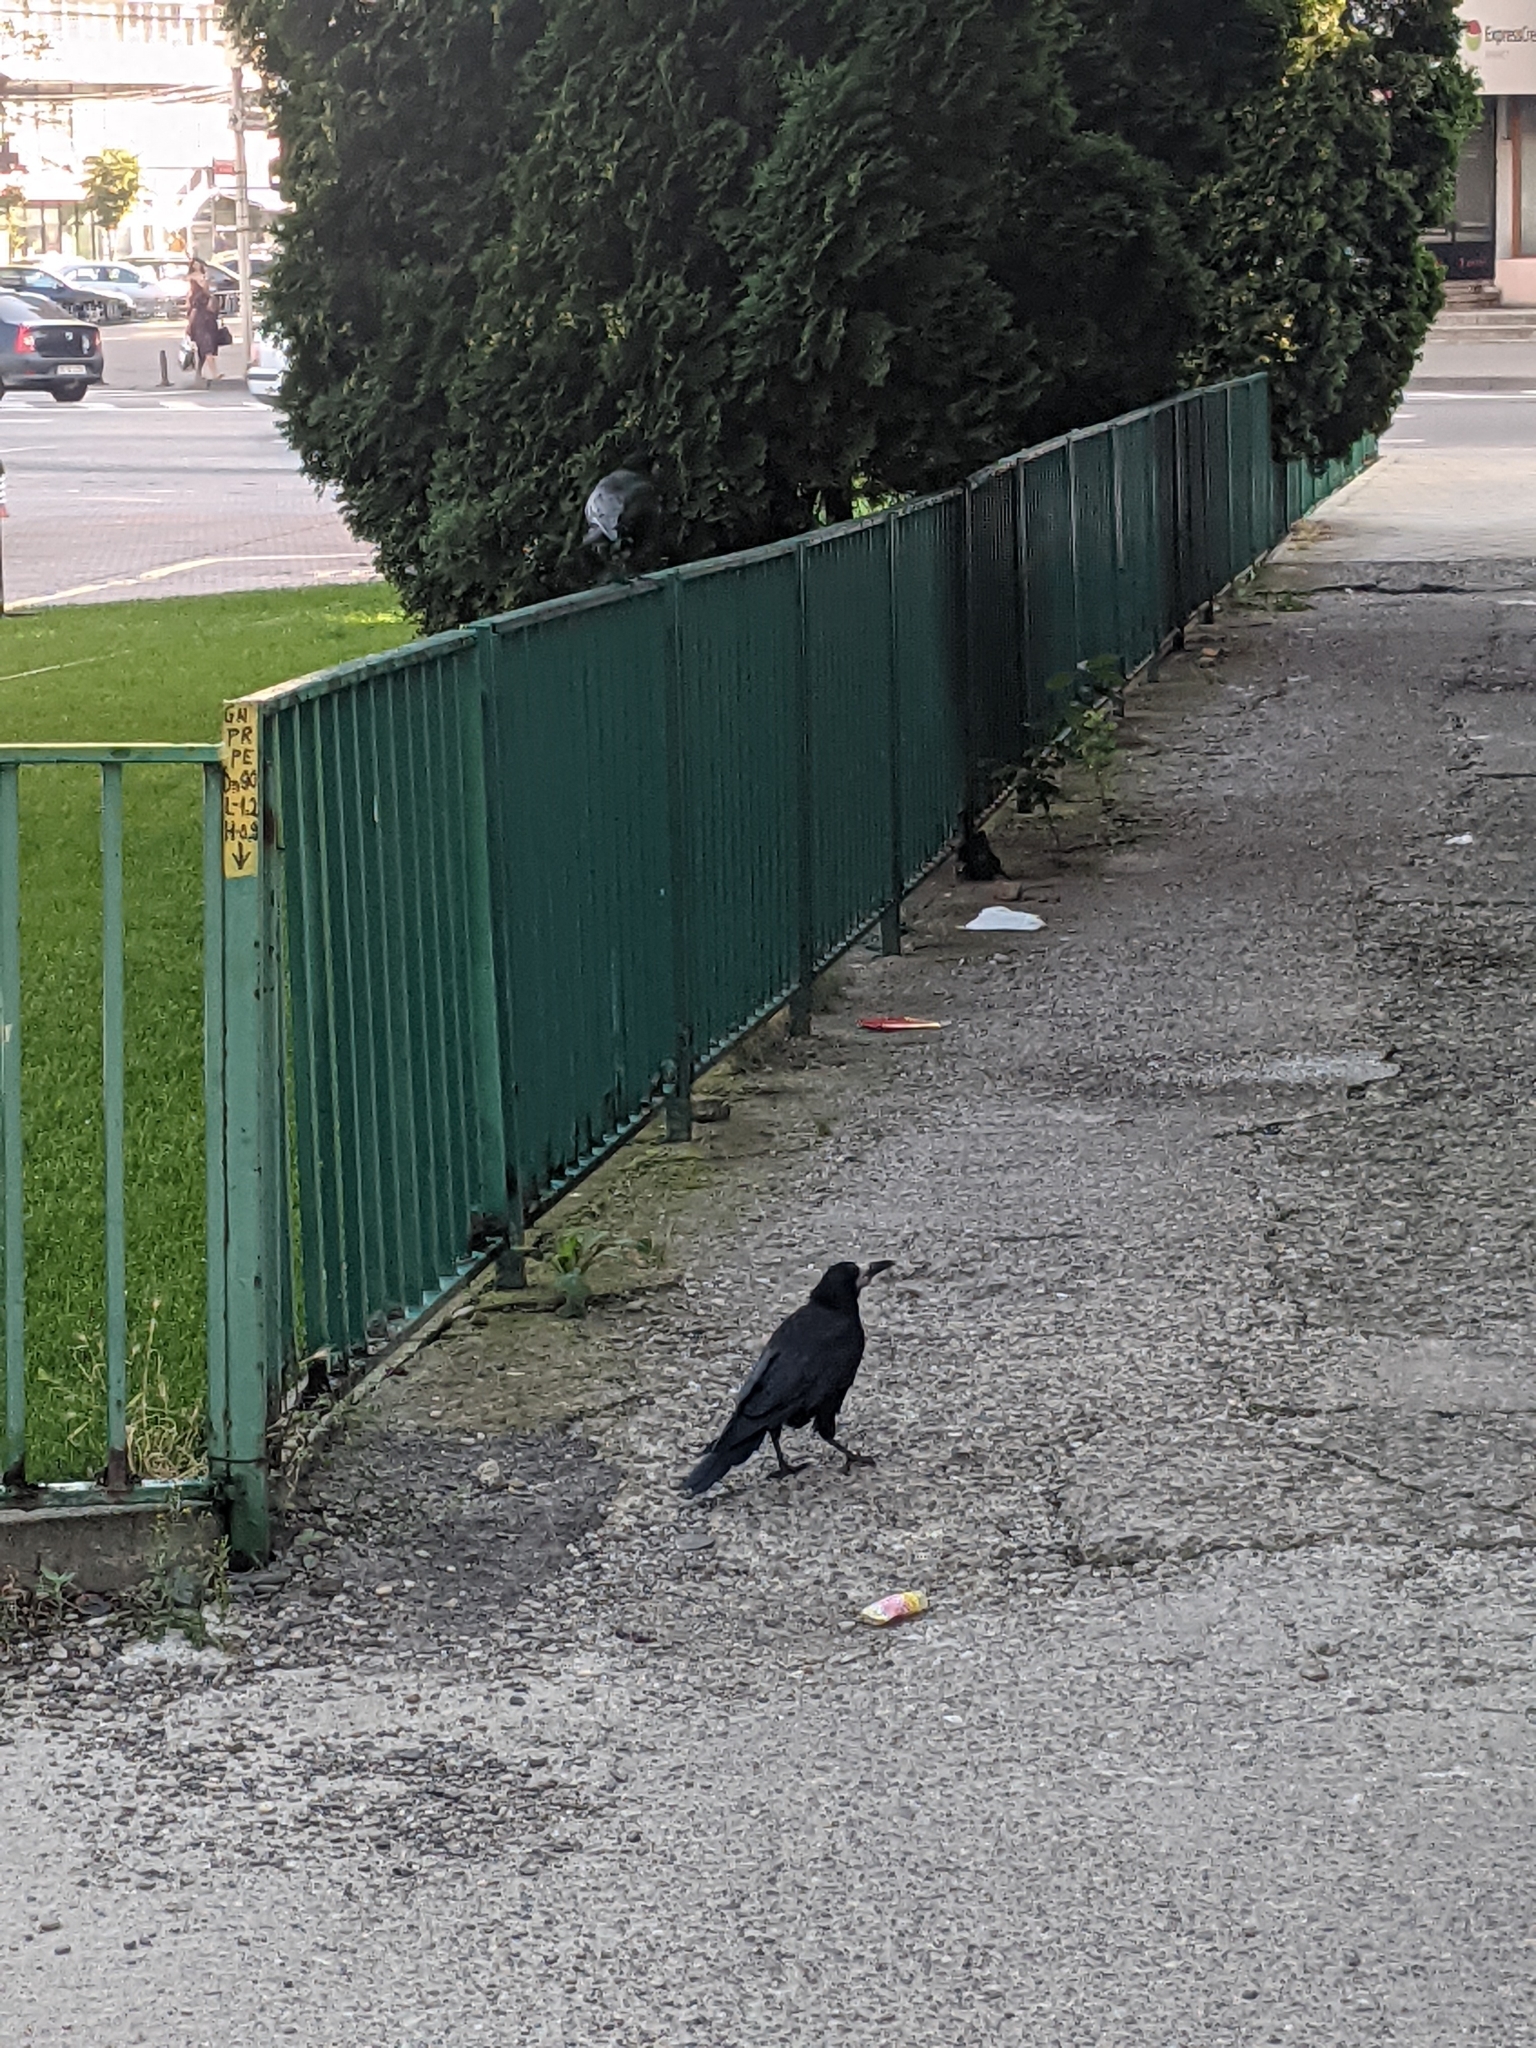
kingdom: Animalia
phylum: Chordata
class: Aves
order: Passeriformes
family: Corvidae
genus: Corvus
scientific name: Corvus frugilegus
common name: Rook
